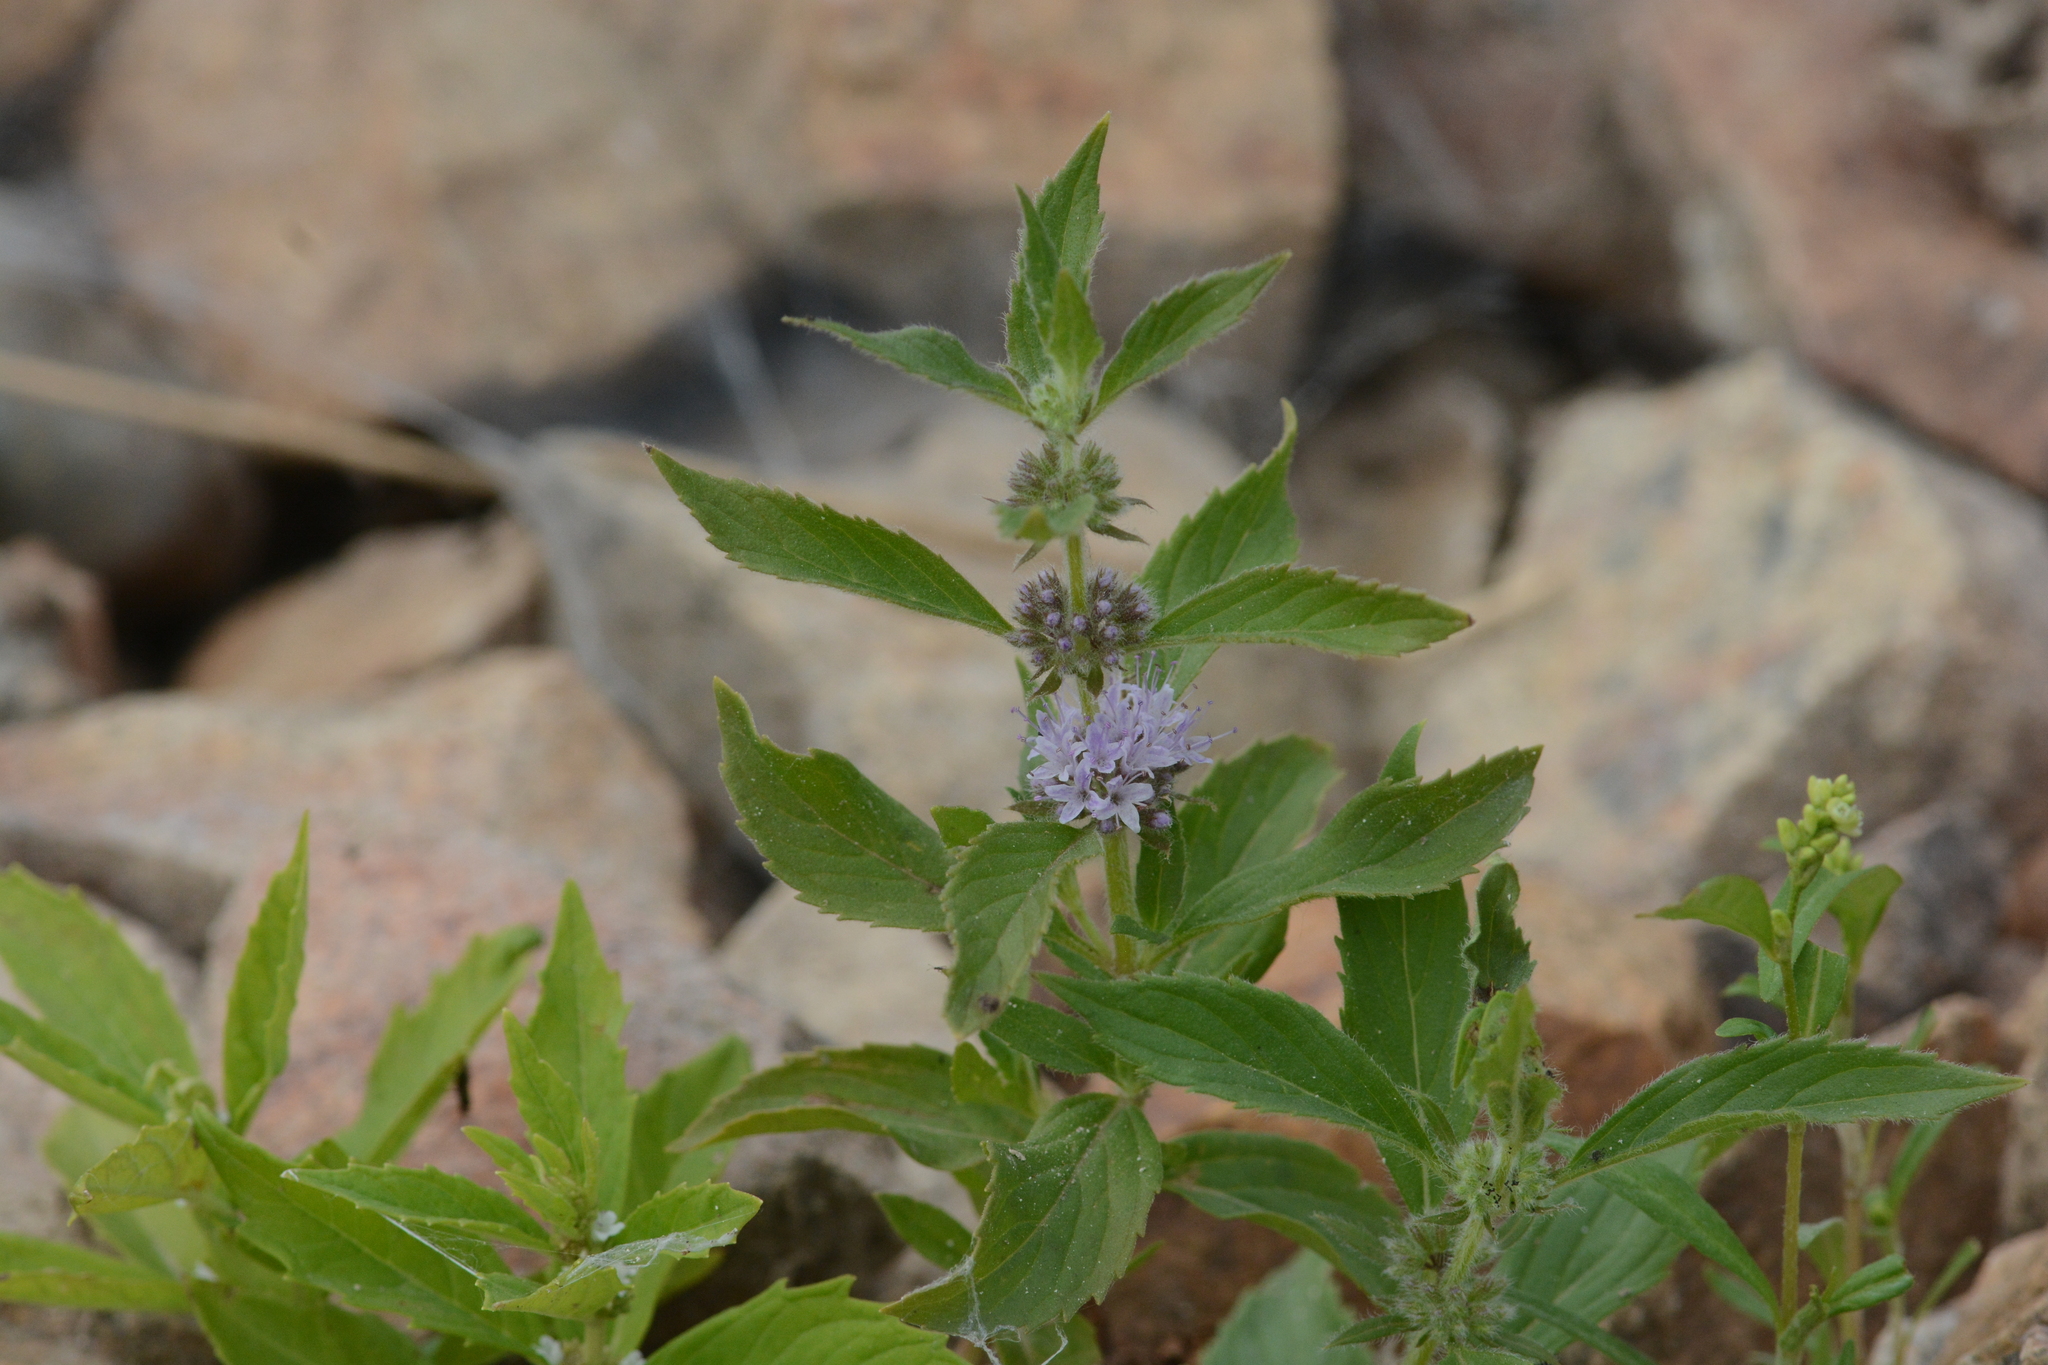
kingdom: Plantae
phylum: Tracheophyta
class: Magnoliopsida
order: Lamiales
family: Lamiaceae
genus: Mentha
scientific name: Mentha canadensis
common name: American corn mint
